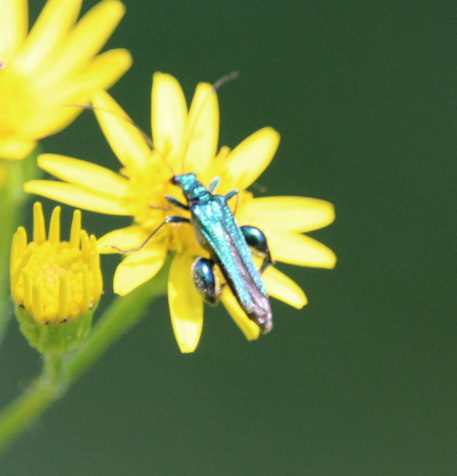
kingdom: Animalia
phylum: Arthropoda
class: Insecta
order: Coleoptera
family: Oedemeridae
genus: Oedemera
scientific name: Oedemera nobilis
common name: Swollen-thighed beetle
